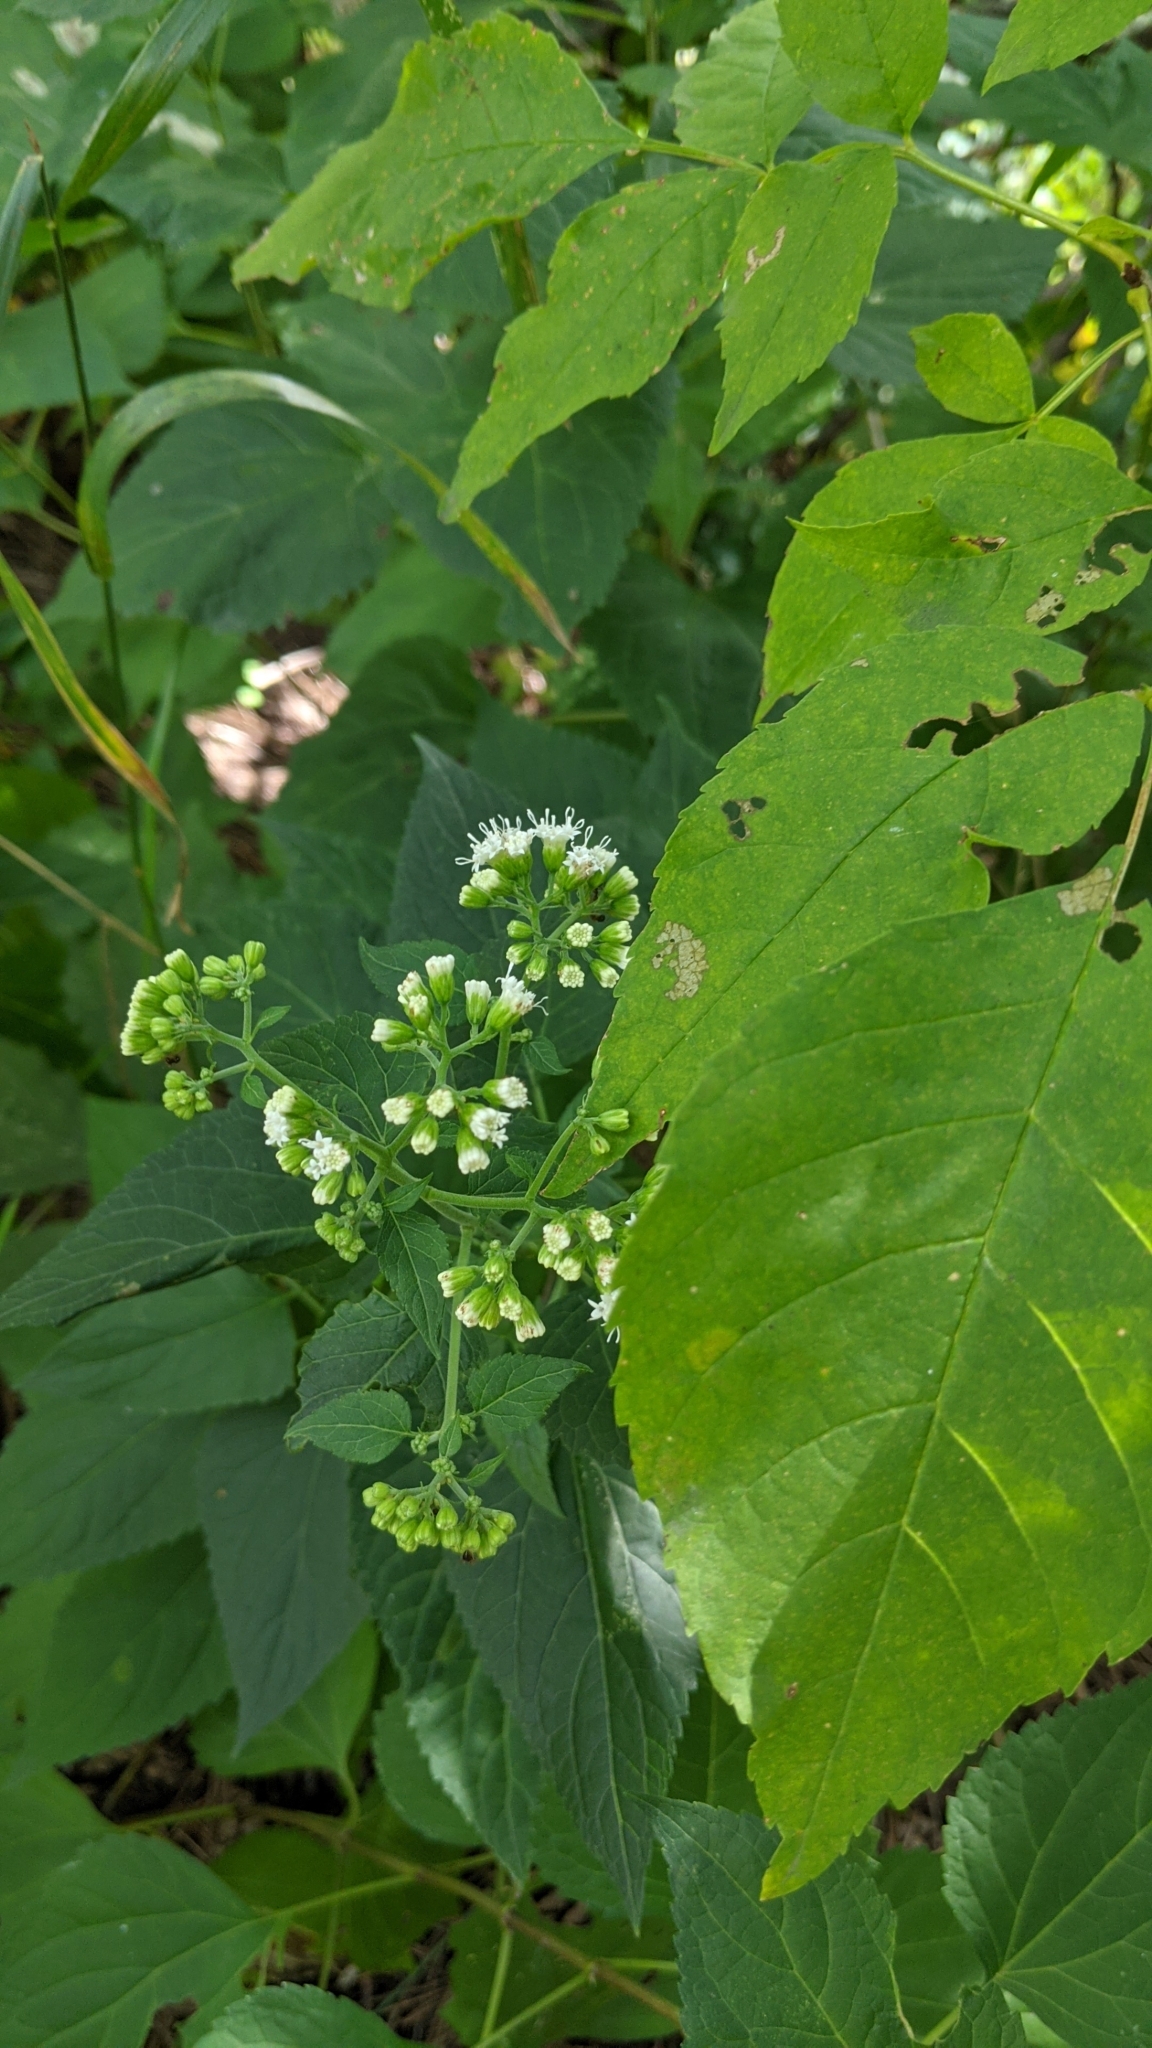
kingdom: Plantae
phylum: Tracheophyta
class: Magnoliopsida
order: Asterales
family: Asteraceae
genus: Ageratina
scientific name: Ageratina altissima
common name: White snakeroot
